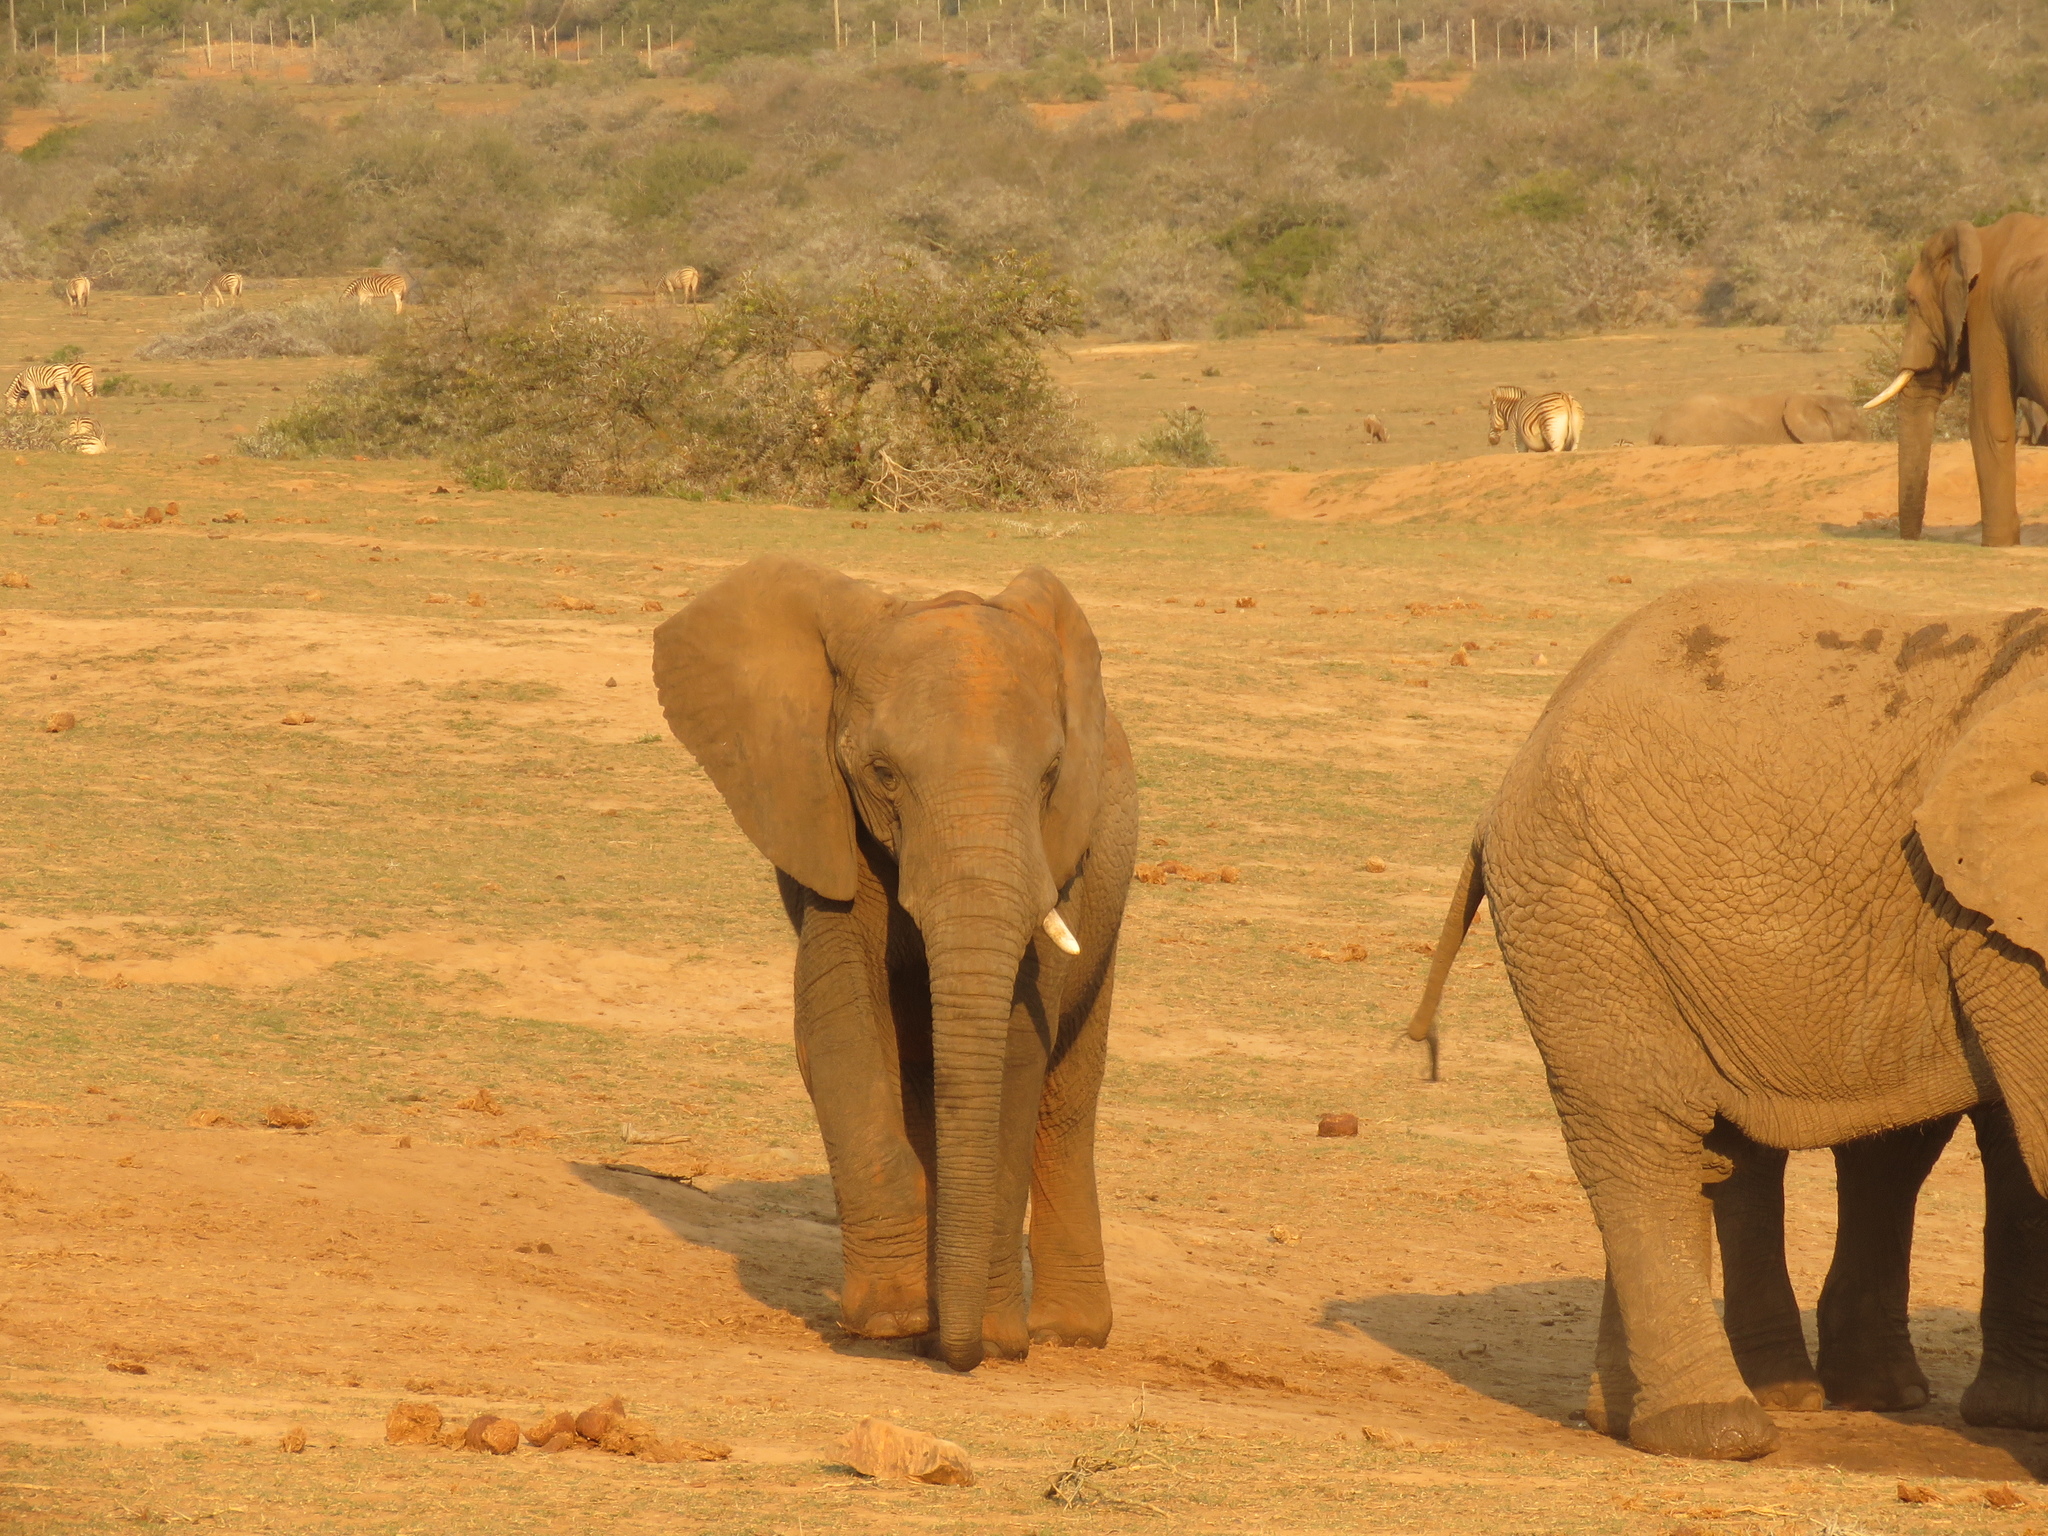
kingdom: Animalia
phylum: Chordata
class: Mammalia
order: Proboscidea
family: Elephantidae
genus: Loxodonta
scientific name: Loxodonta africana
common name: African elephant
